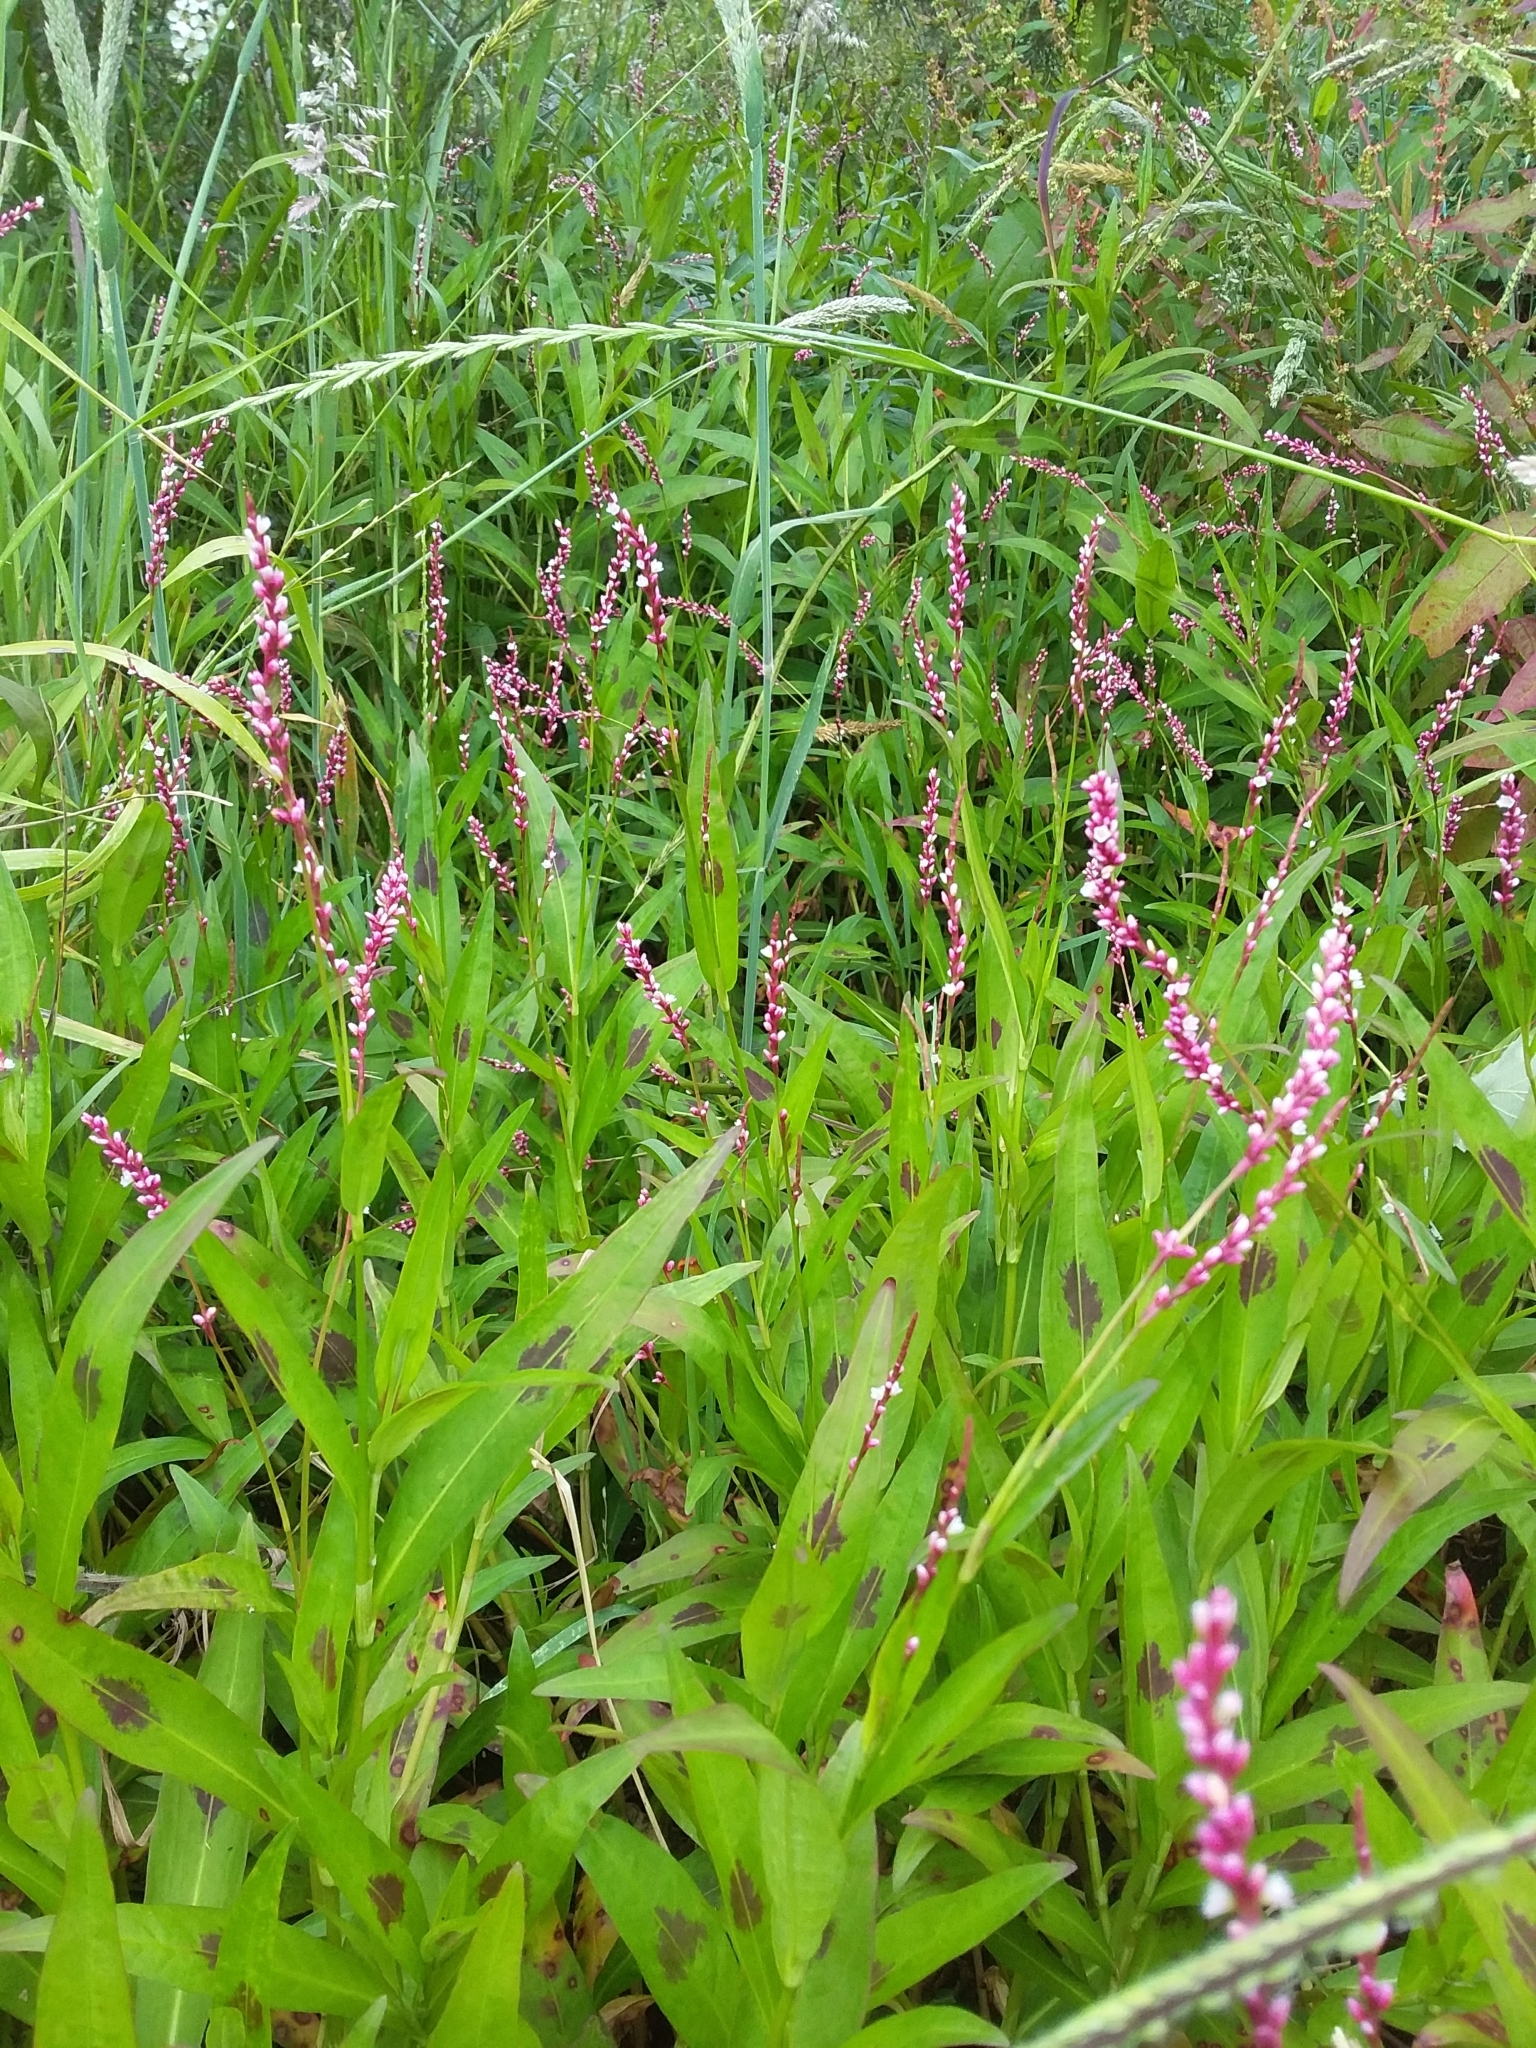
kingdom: Plantae
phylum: Tracheophyta
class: Magnoliopsida
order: Caryophyllales
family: Polygonaceae
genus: Persicaria
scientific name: Persicaria decipiens
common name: Willow-weed
